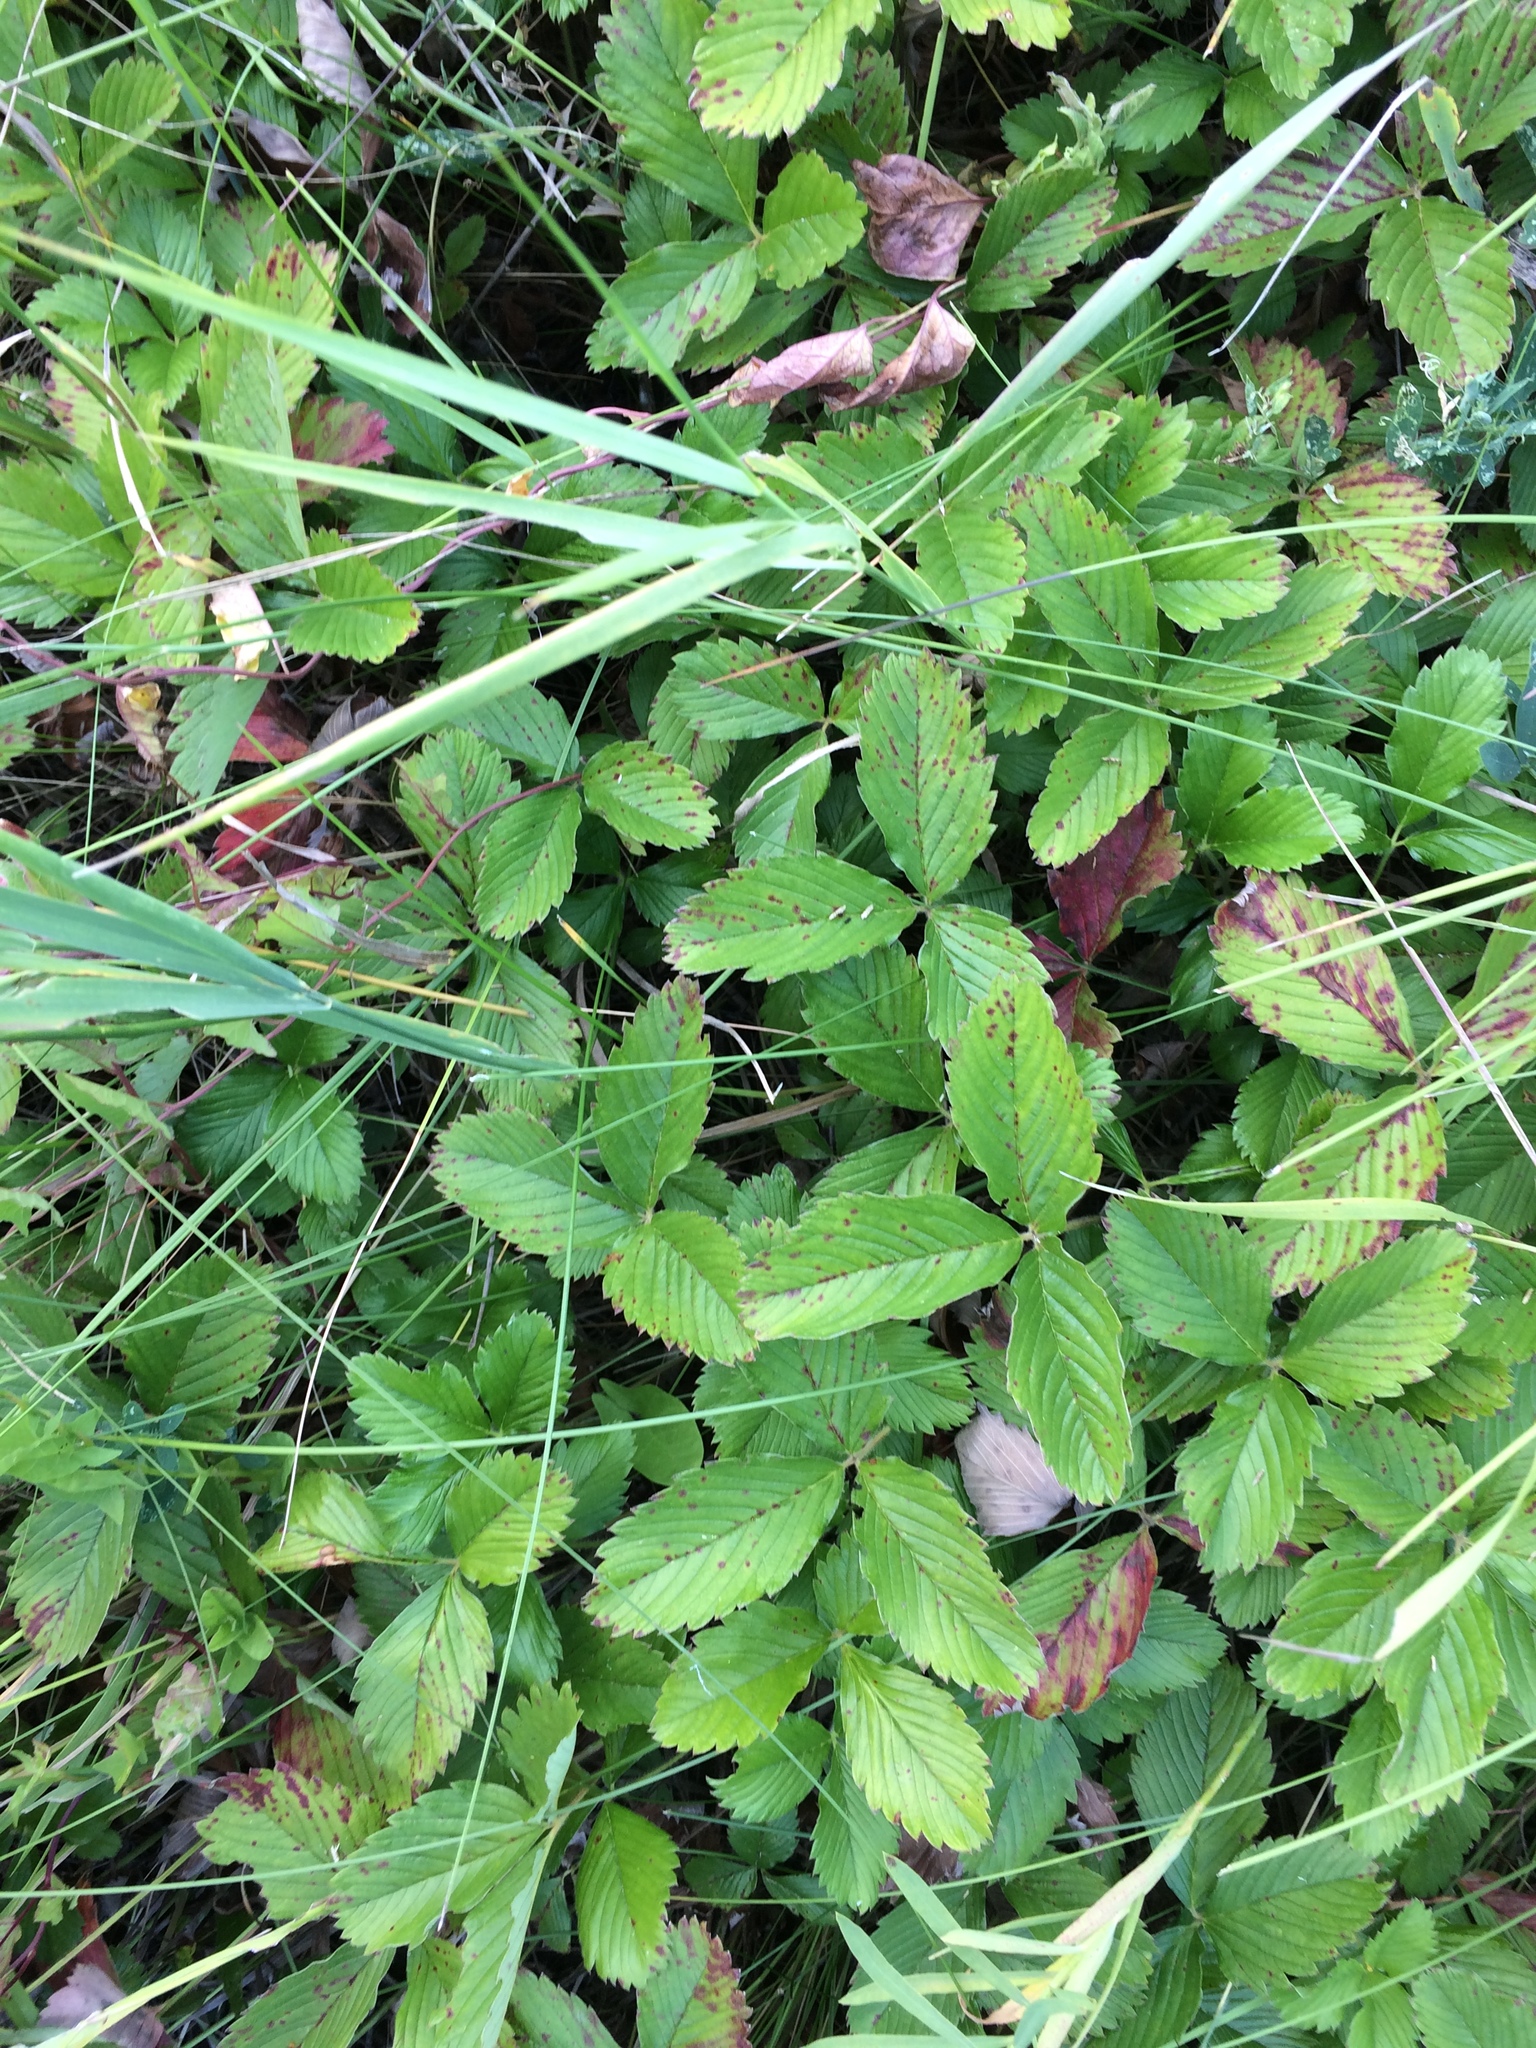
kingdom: Plantae
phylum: Tracheophyta
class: Magnoliopsida
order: Rosales
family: Rosaceae
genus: Fragaria
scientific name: Fragaria viridis
